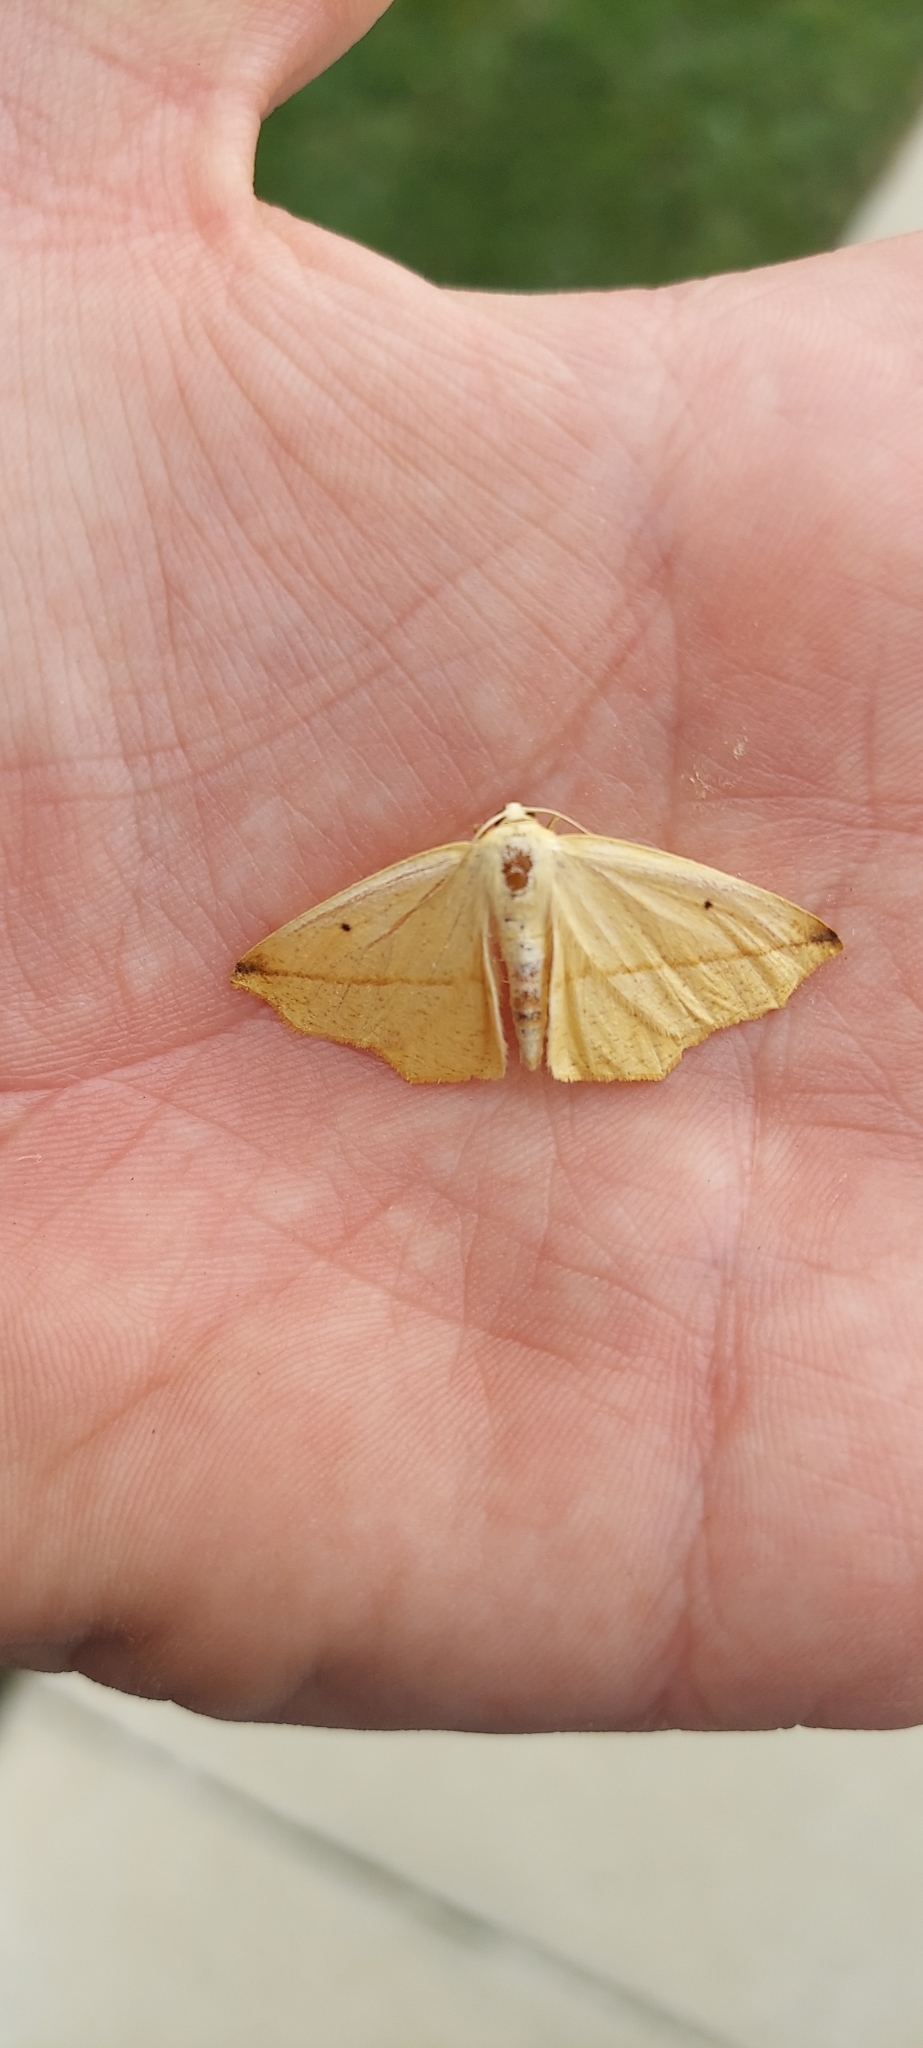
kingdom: Animalia
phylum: Arthropoda
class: Insecta
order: Lepidoptera
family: Geometridae
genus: Tetracis
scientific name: Tetracis crocallata
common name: Yellow slant-line
